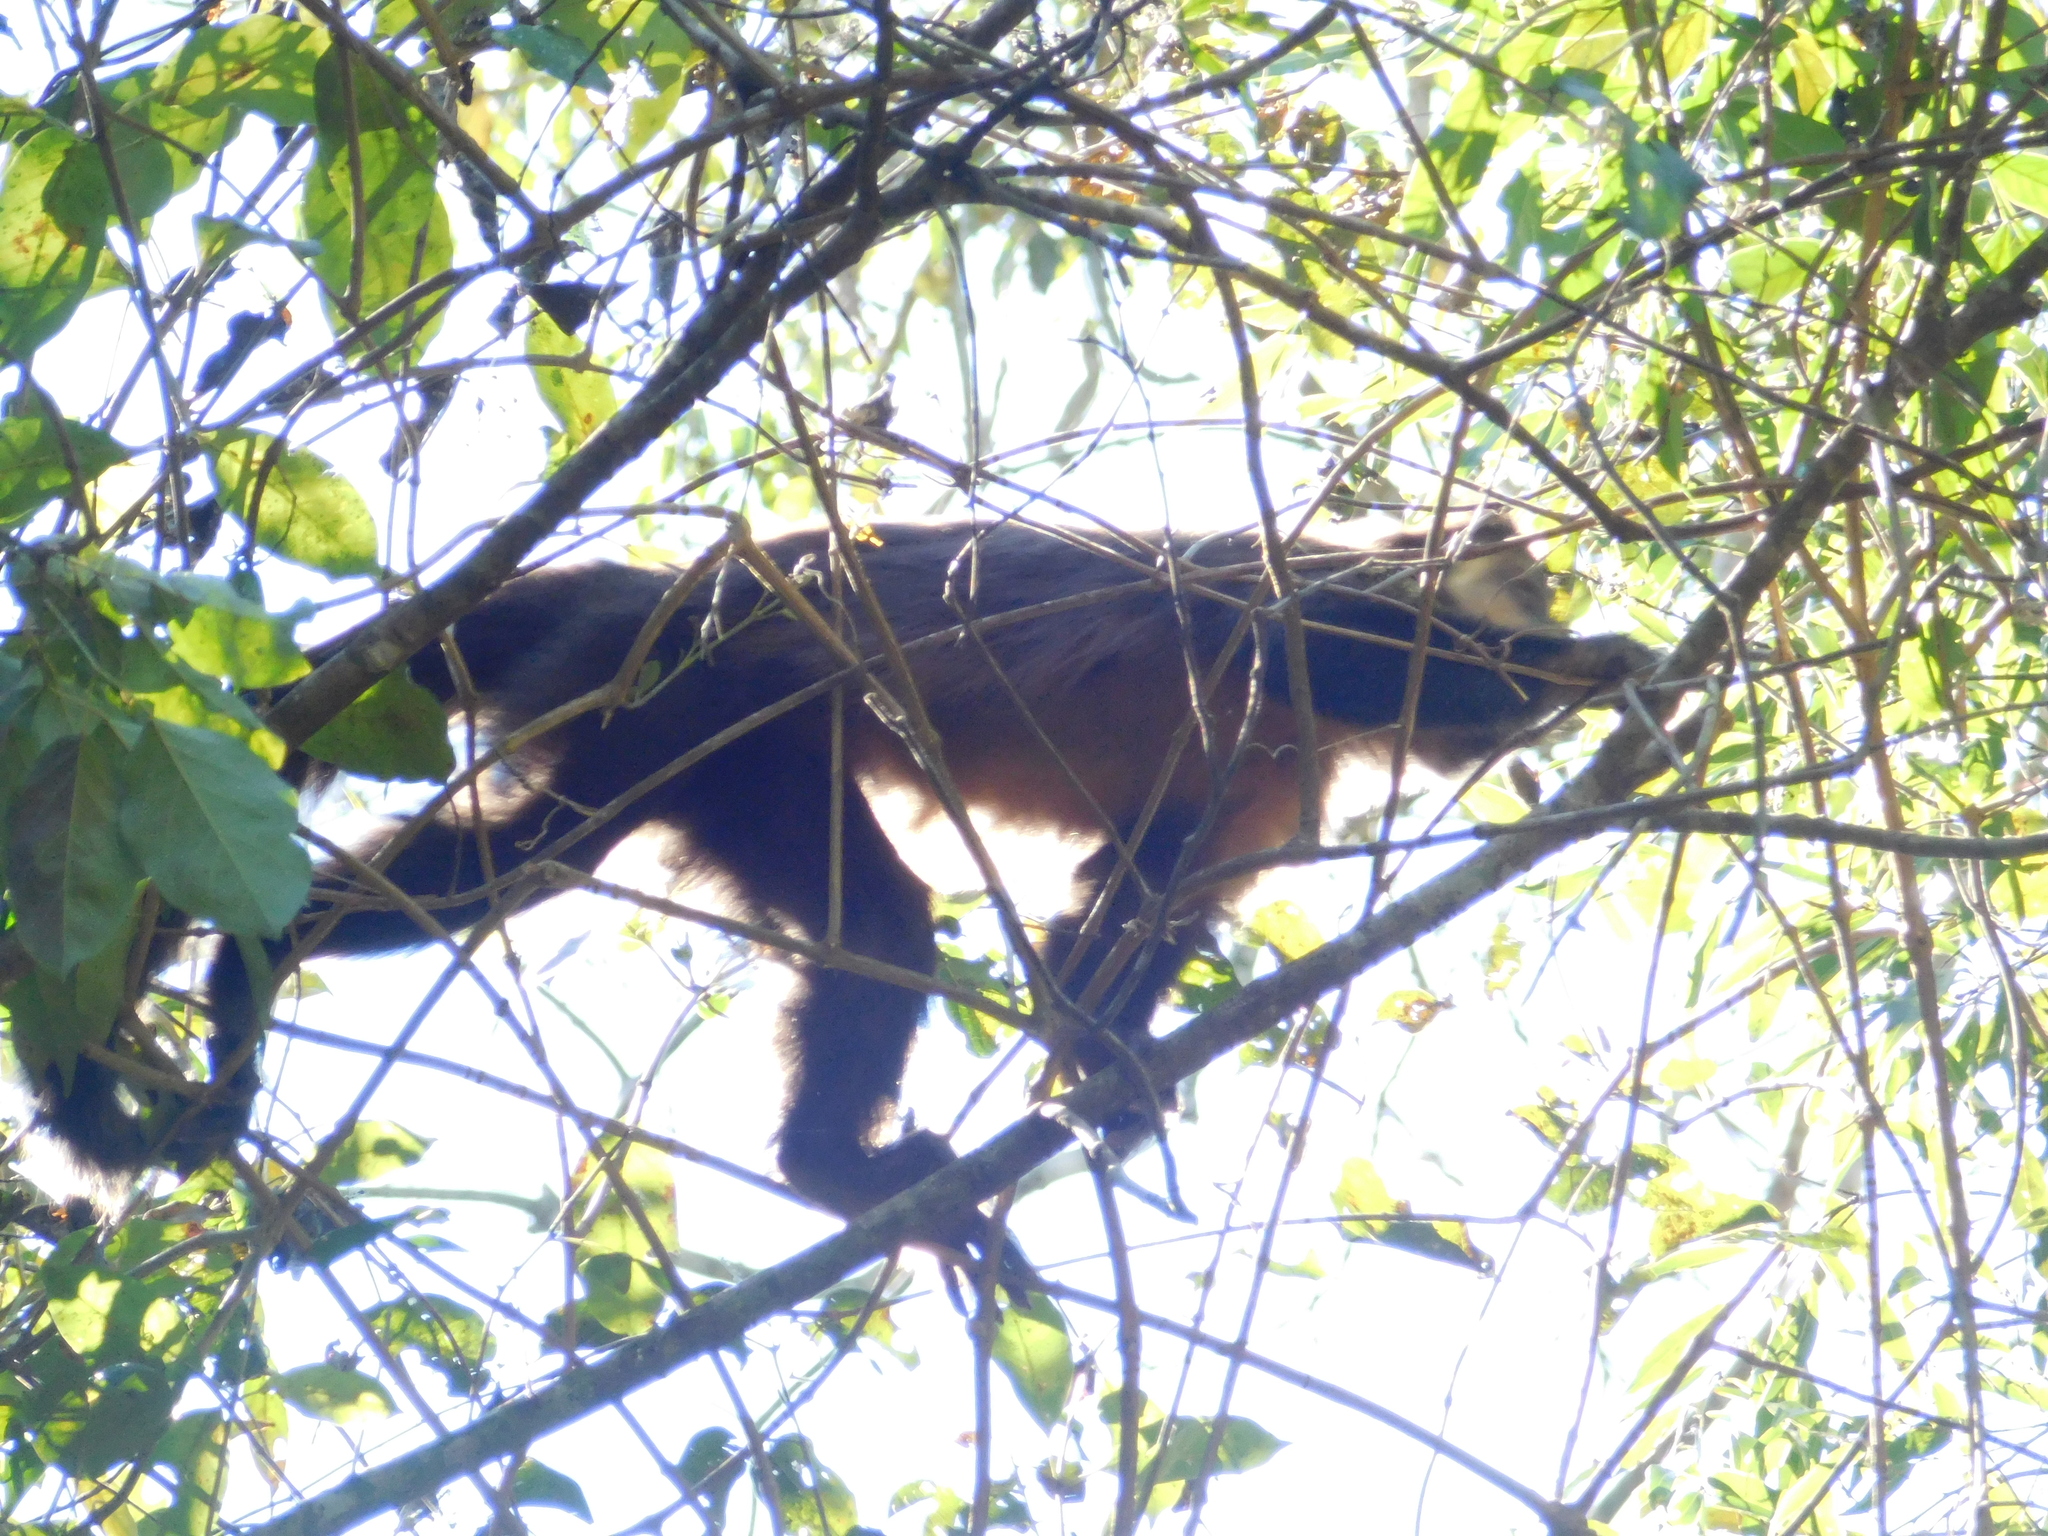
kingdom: Animalia
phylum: Chordata
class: Mammalia
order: Primates
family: Cebidae
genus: Sapajus
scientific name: Sapajus nigritus
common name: Black capuchin
